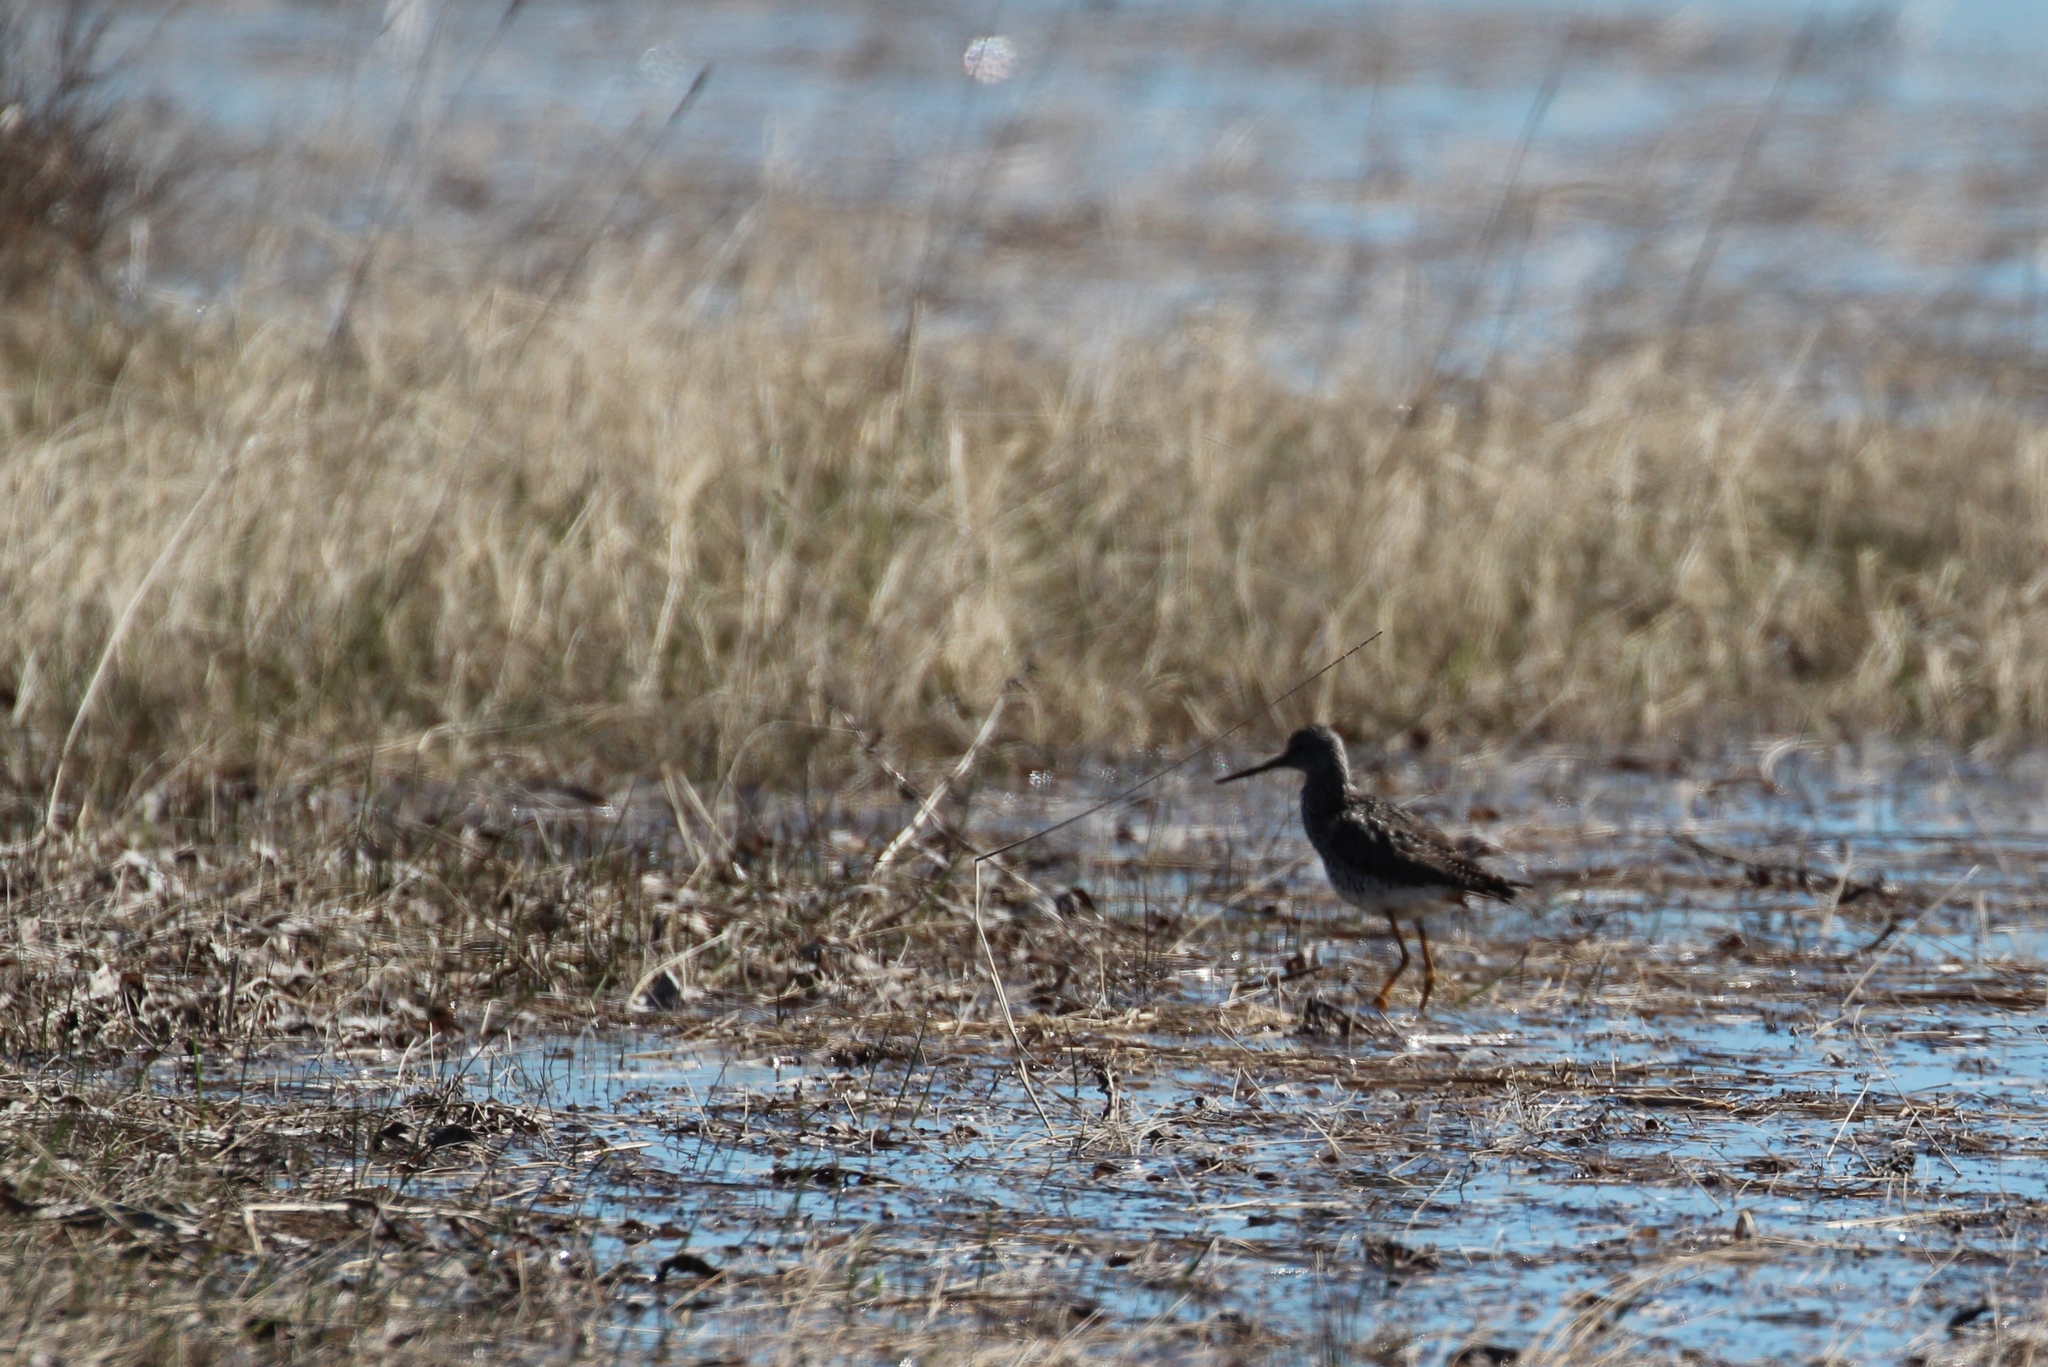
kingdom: Animalia
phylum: Chordata
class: Aves
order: Charadriiformes
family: Scolopacidae
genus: Tringa
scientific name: Tringa melanoleuca
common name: Greater yellowlegs
